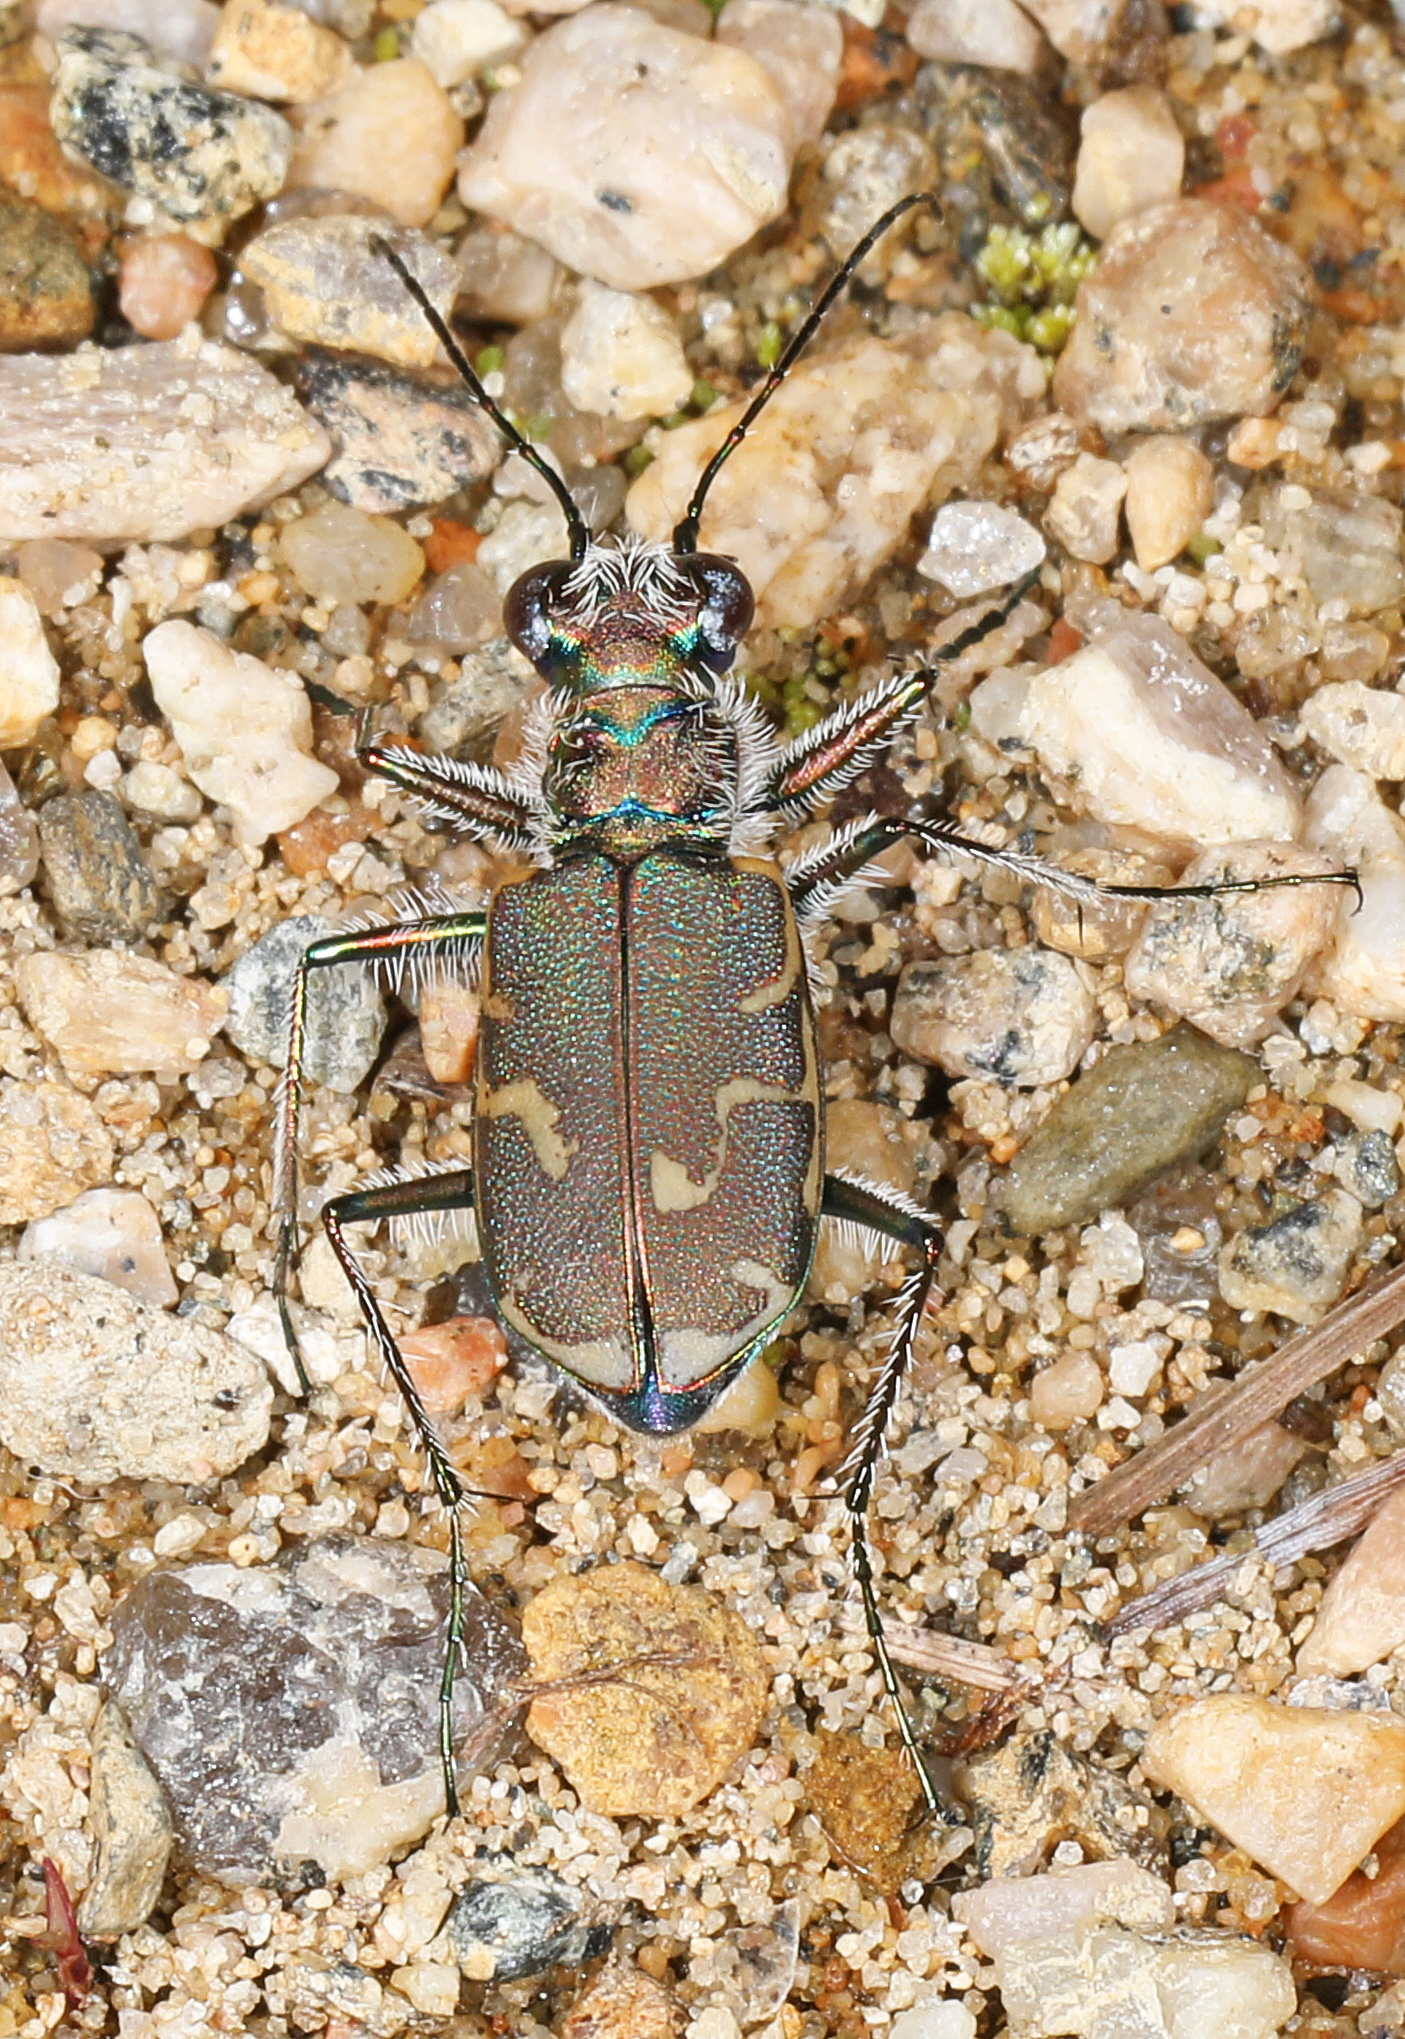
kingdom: Animalia
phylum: Arthropoda
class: Insecta
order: Coleoptera
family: Carabidae
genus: Cicindela
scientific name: Cicindela repanda
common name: Bronzed tiger beetle
